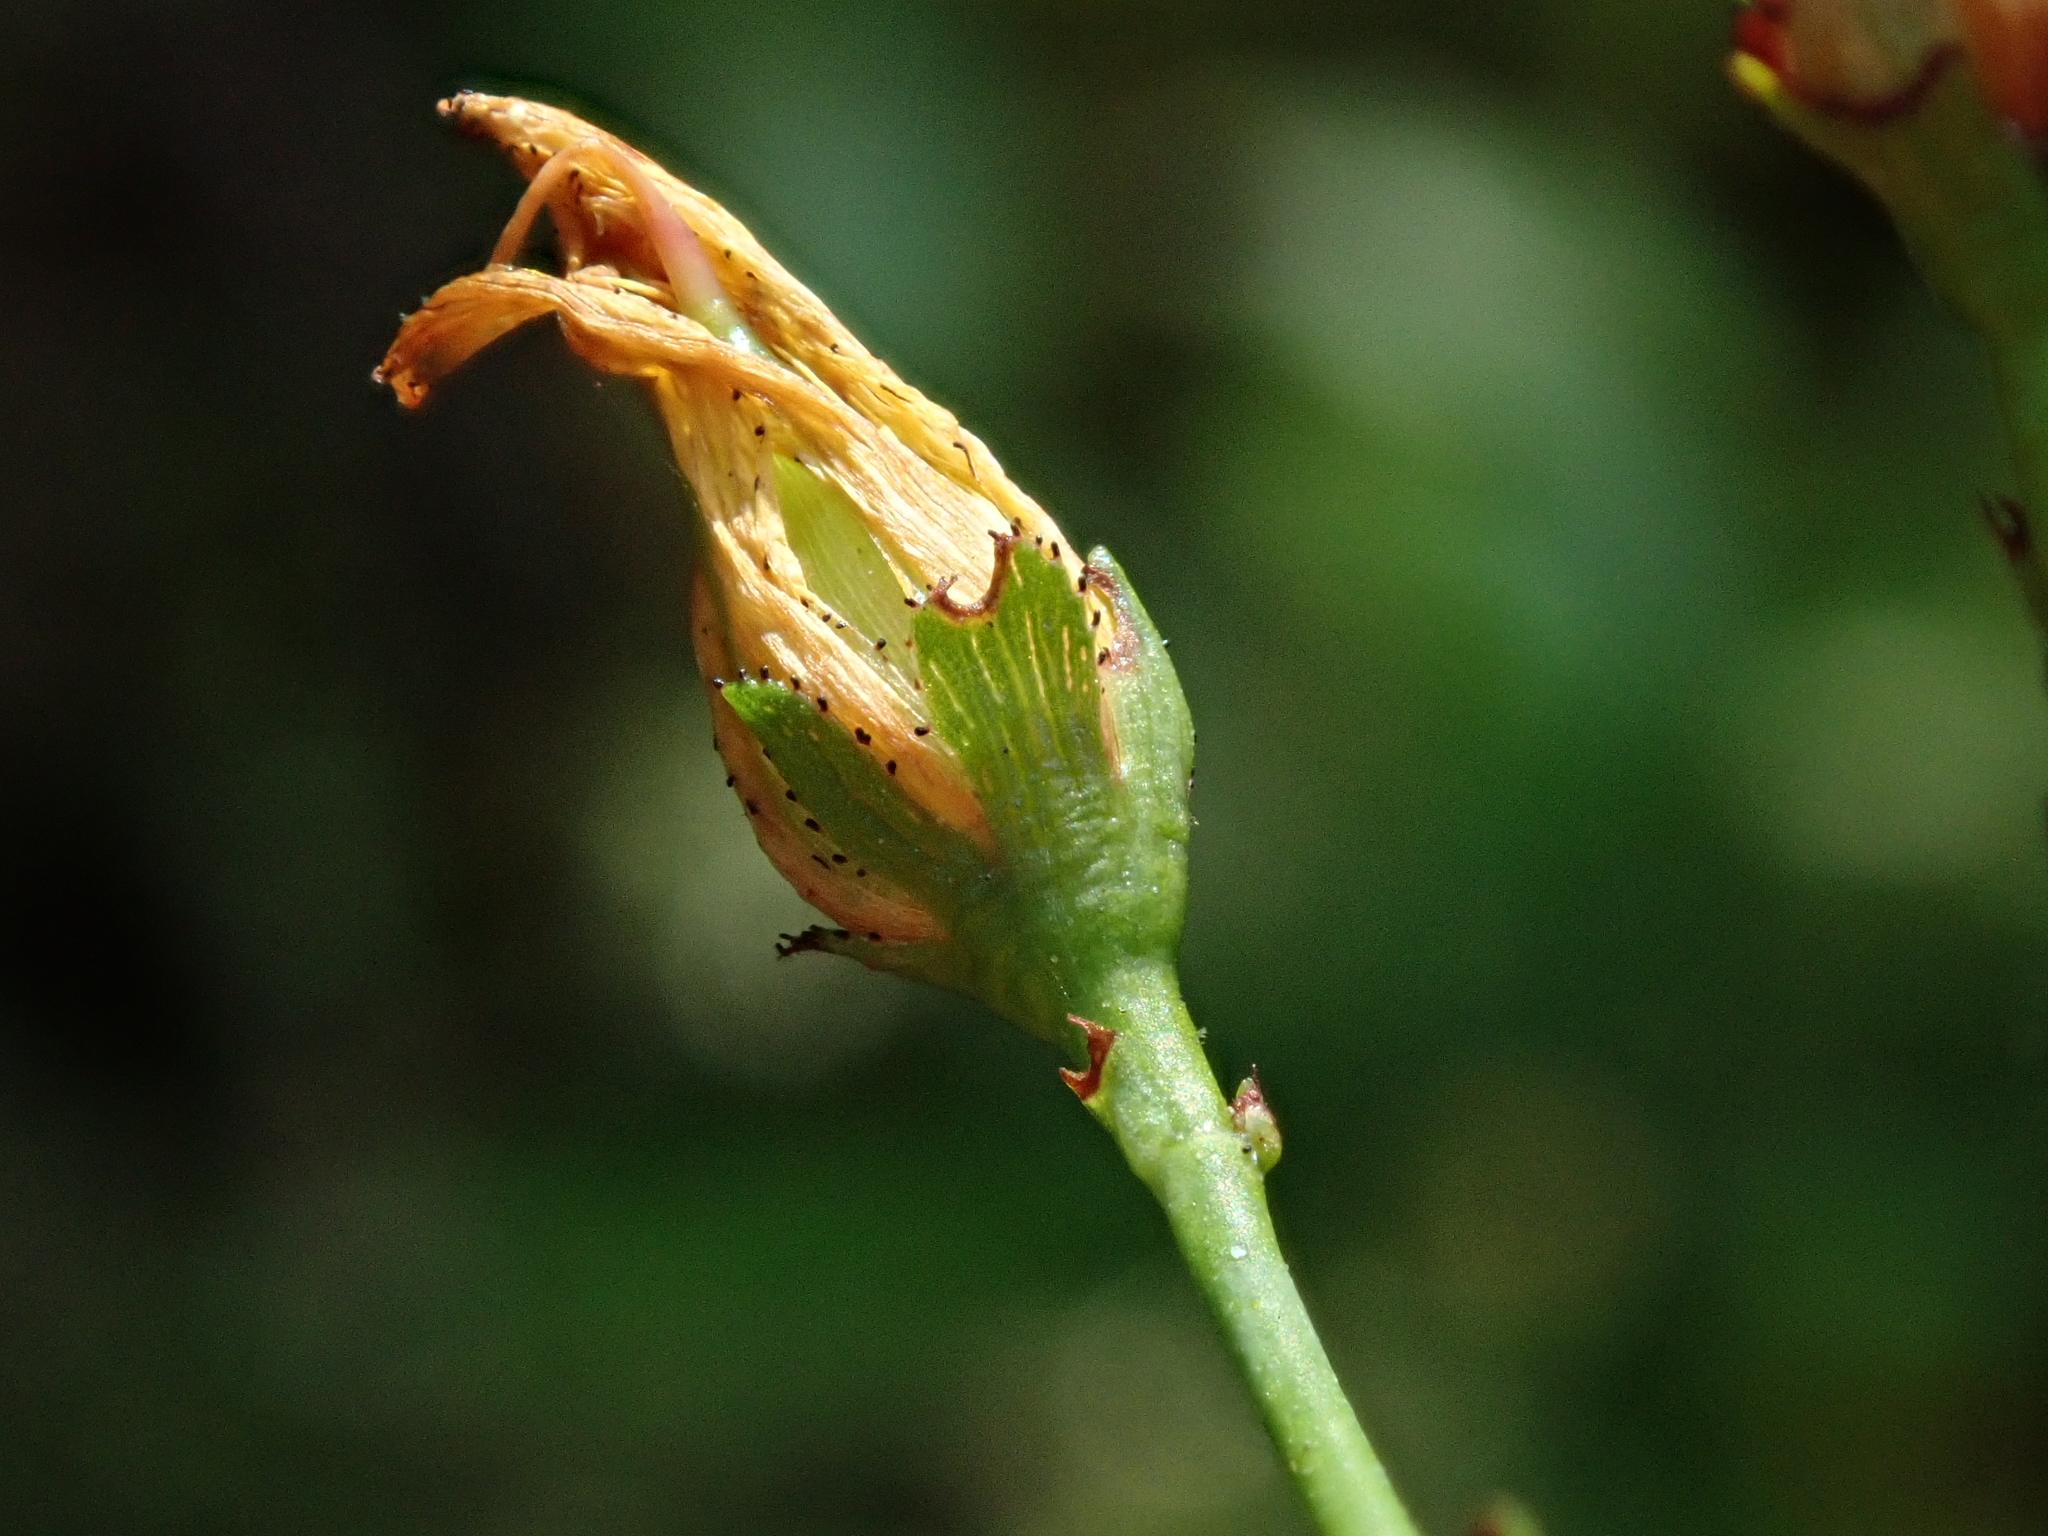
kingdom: Plantae
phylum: Tracheophyta
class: Magnoliopsida
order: Malpighiales
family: Hypericaceae
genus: Hypericum
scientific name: Hypericum pulchrum
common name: Slender st. john's-wort
